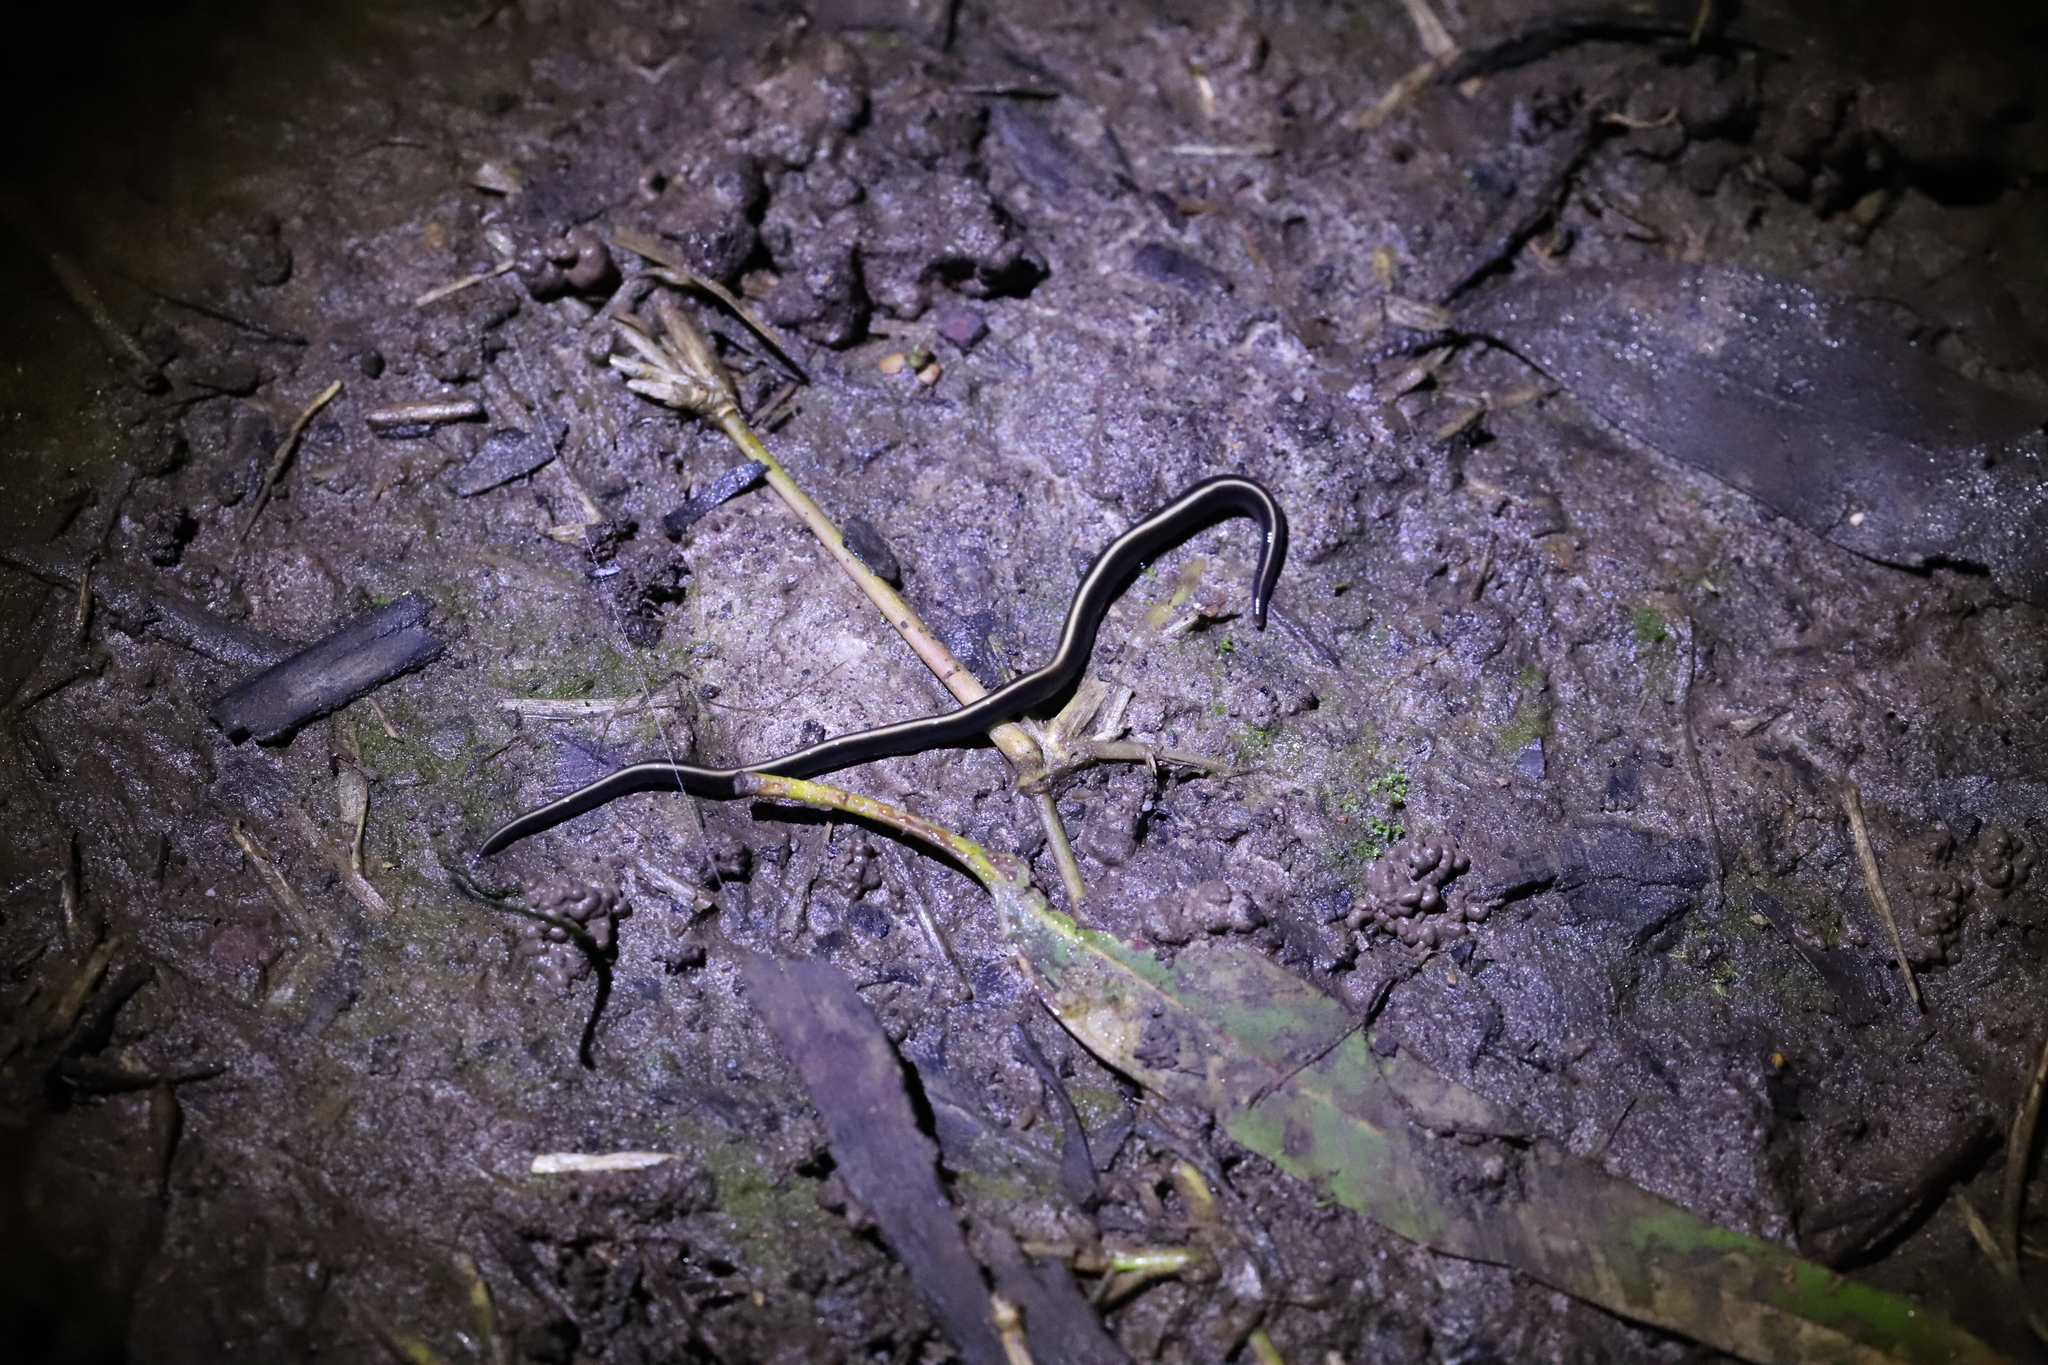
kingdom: Animalia
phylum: Platyhelminthes
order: Tricladida
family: Geoplanidae
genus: Caenoplana
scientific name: Caenoplana coerulea
